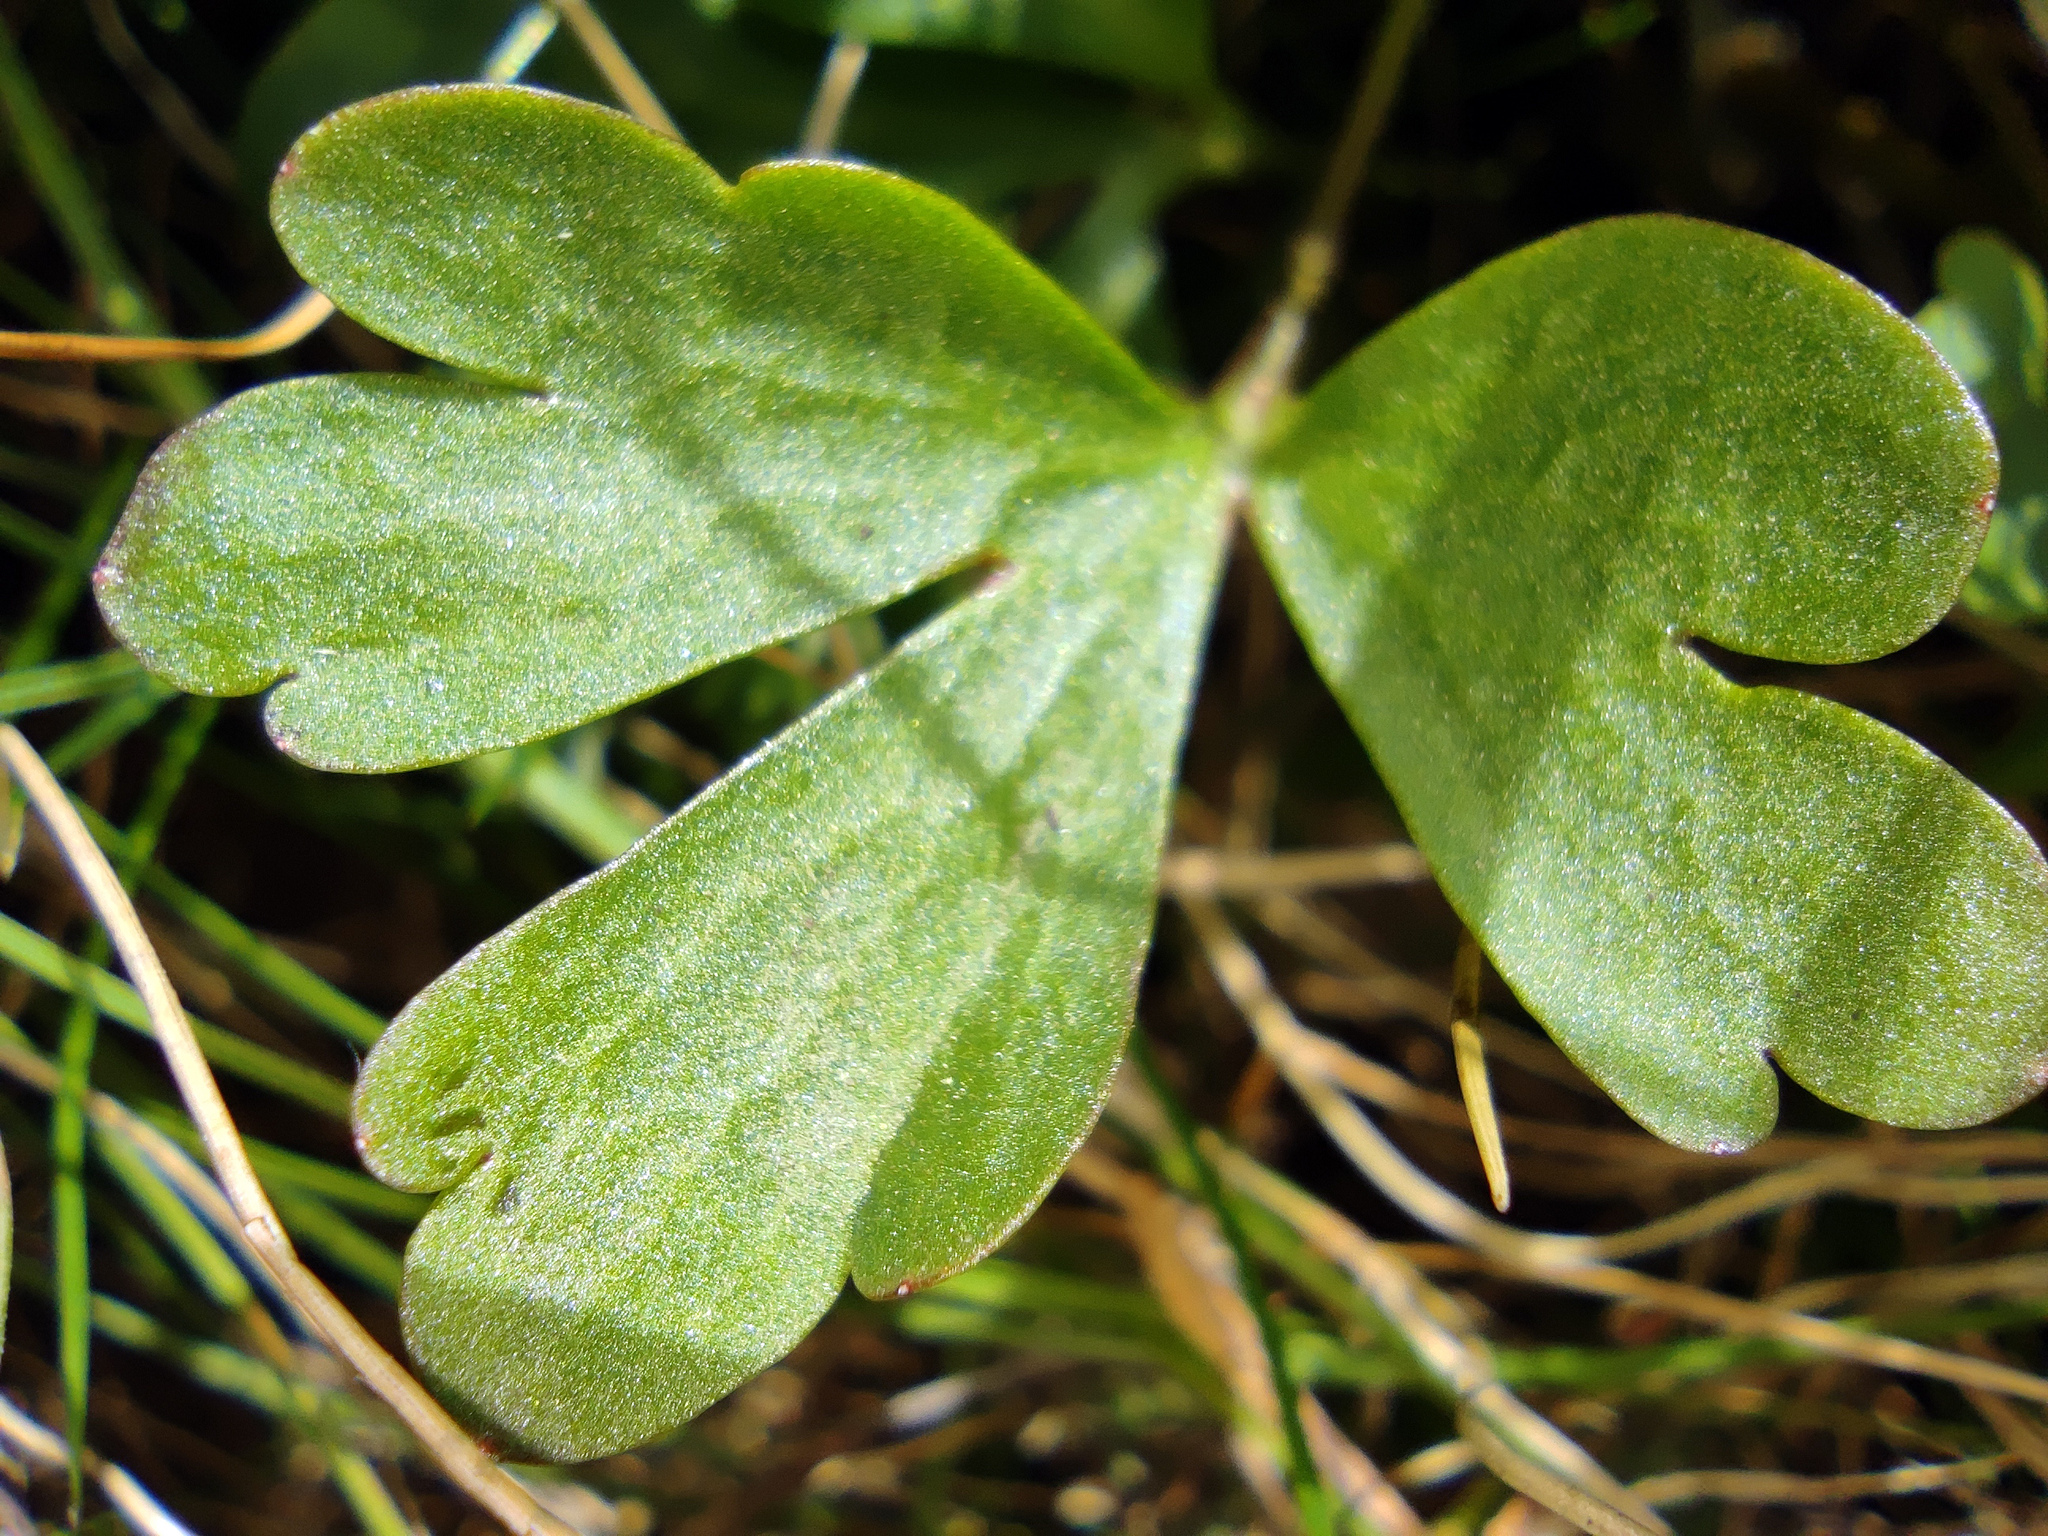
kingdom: Plantae
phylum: Tracheophyta
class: Magnoliopsida
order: Ranunculales
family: Ranunculaceae
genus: Ranunculus
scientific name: Ranunculus polyrhizos
